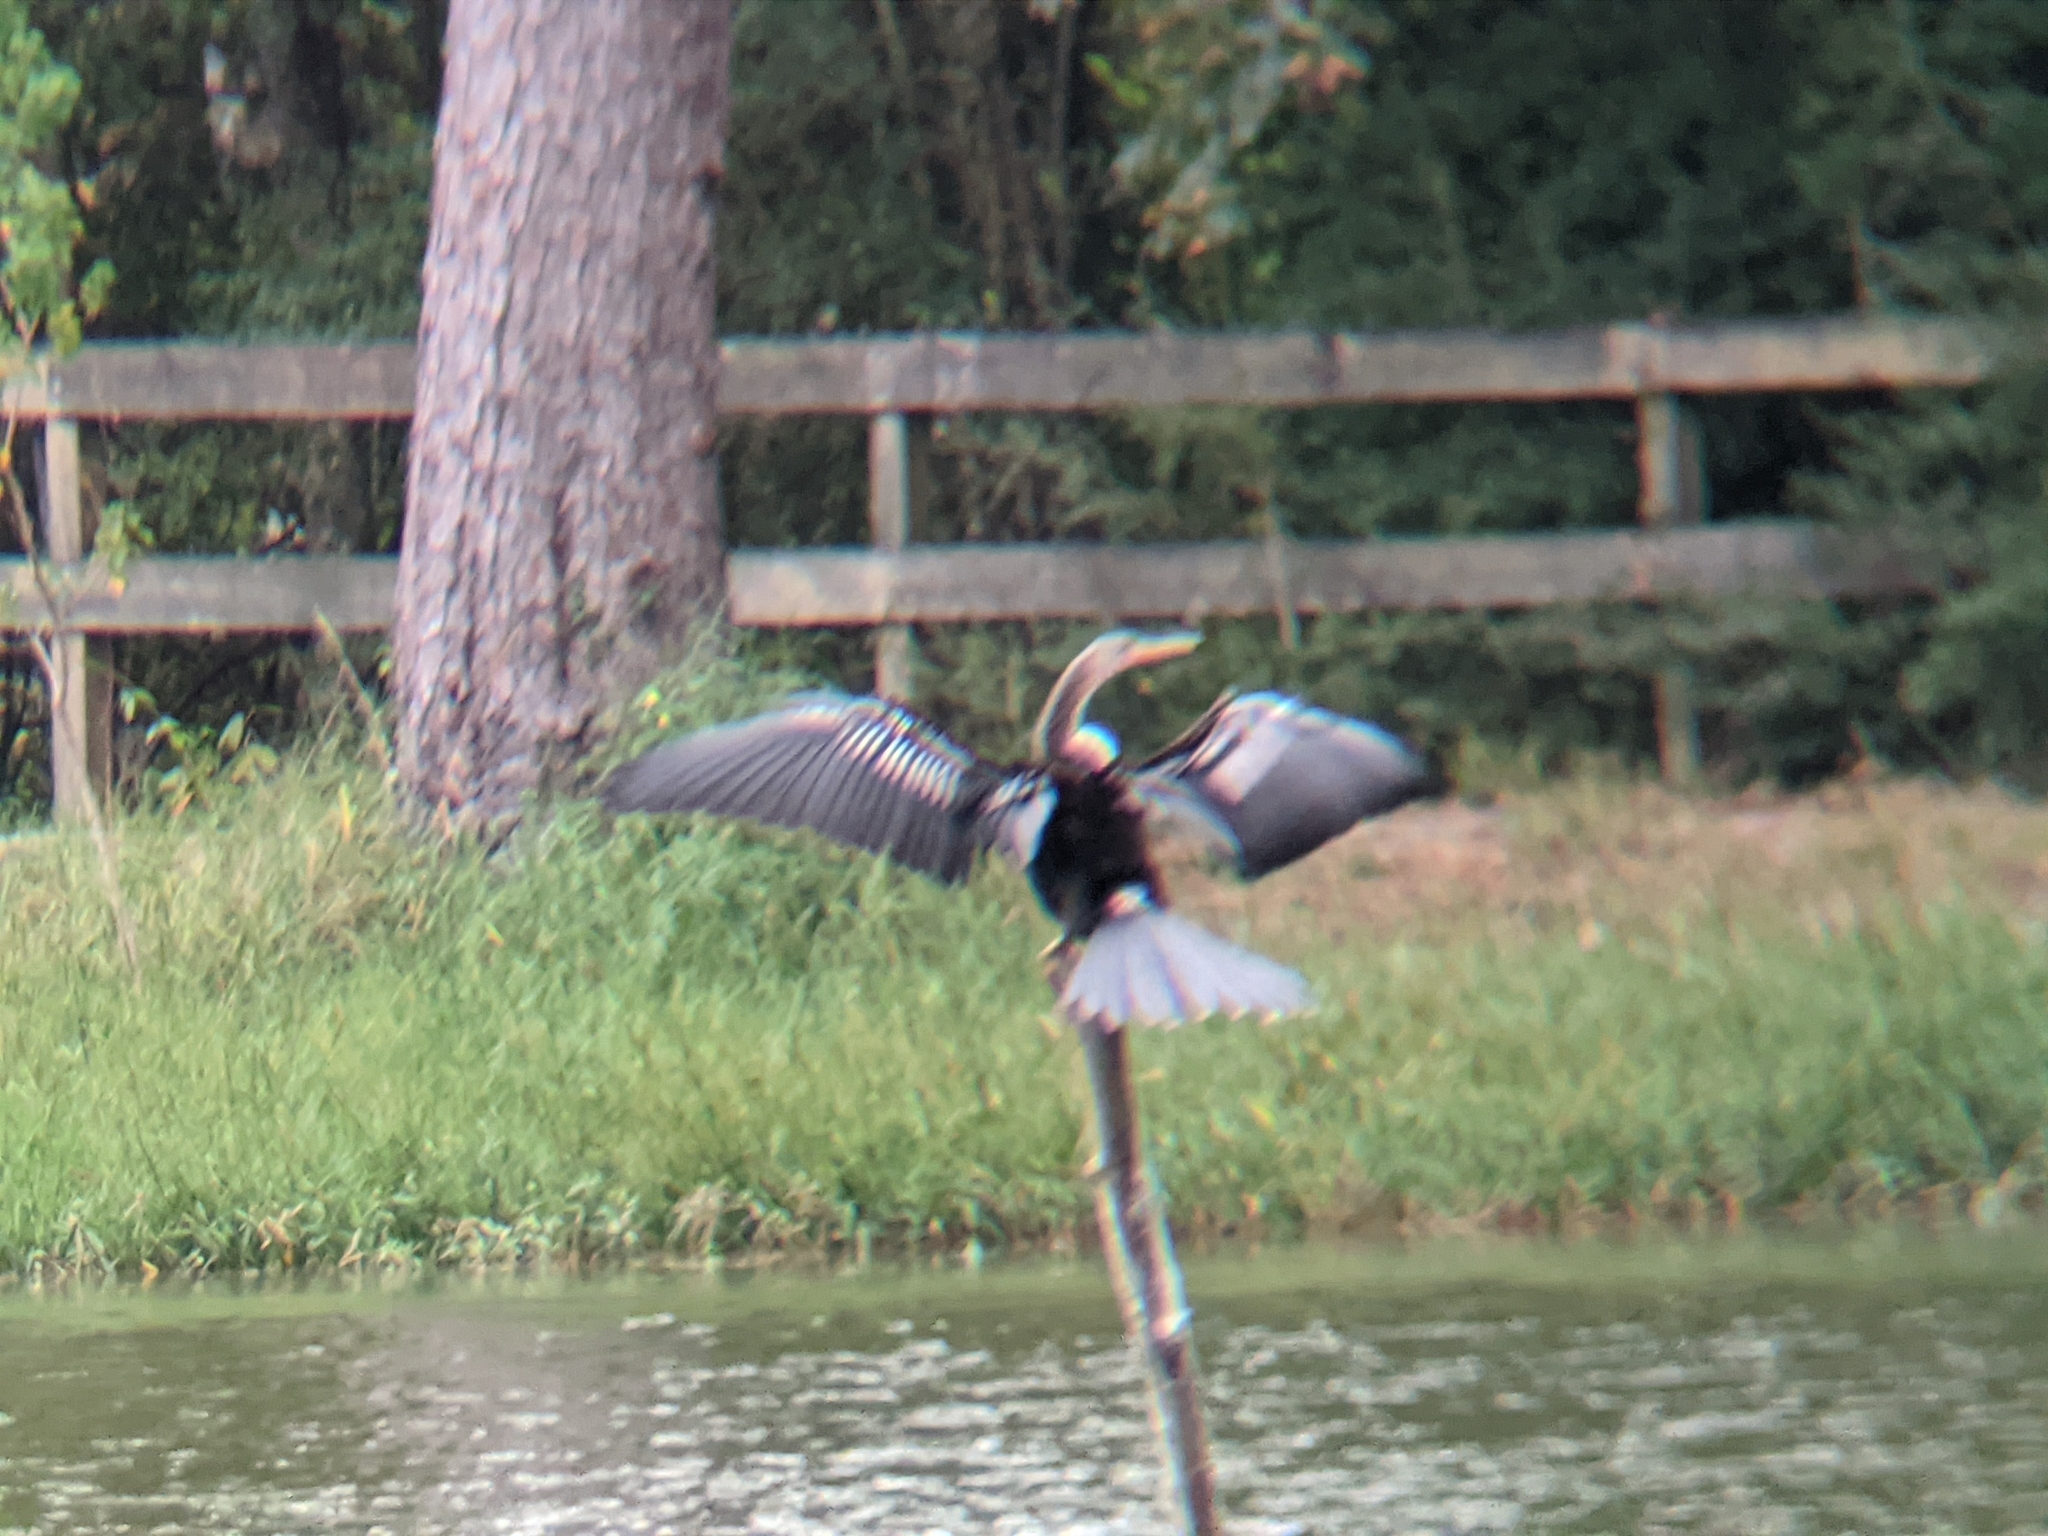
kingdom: Animalia
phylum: Chordata
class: Aves
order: Suliformes
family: Anhingidae
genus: Anhinga
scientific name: Anhinga anhinga
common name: Anhinga
